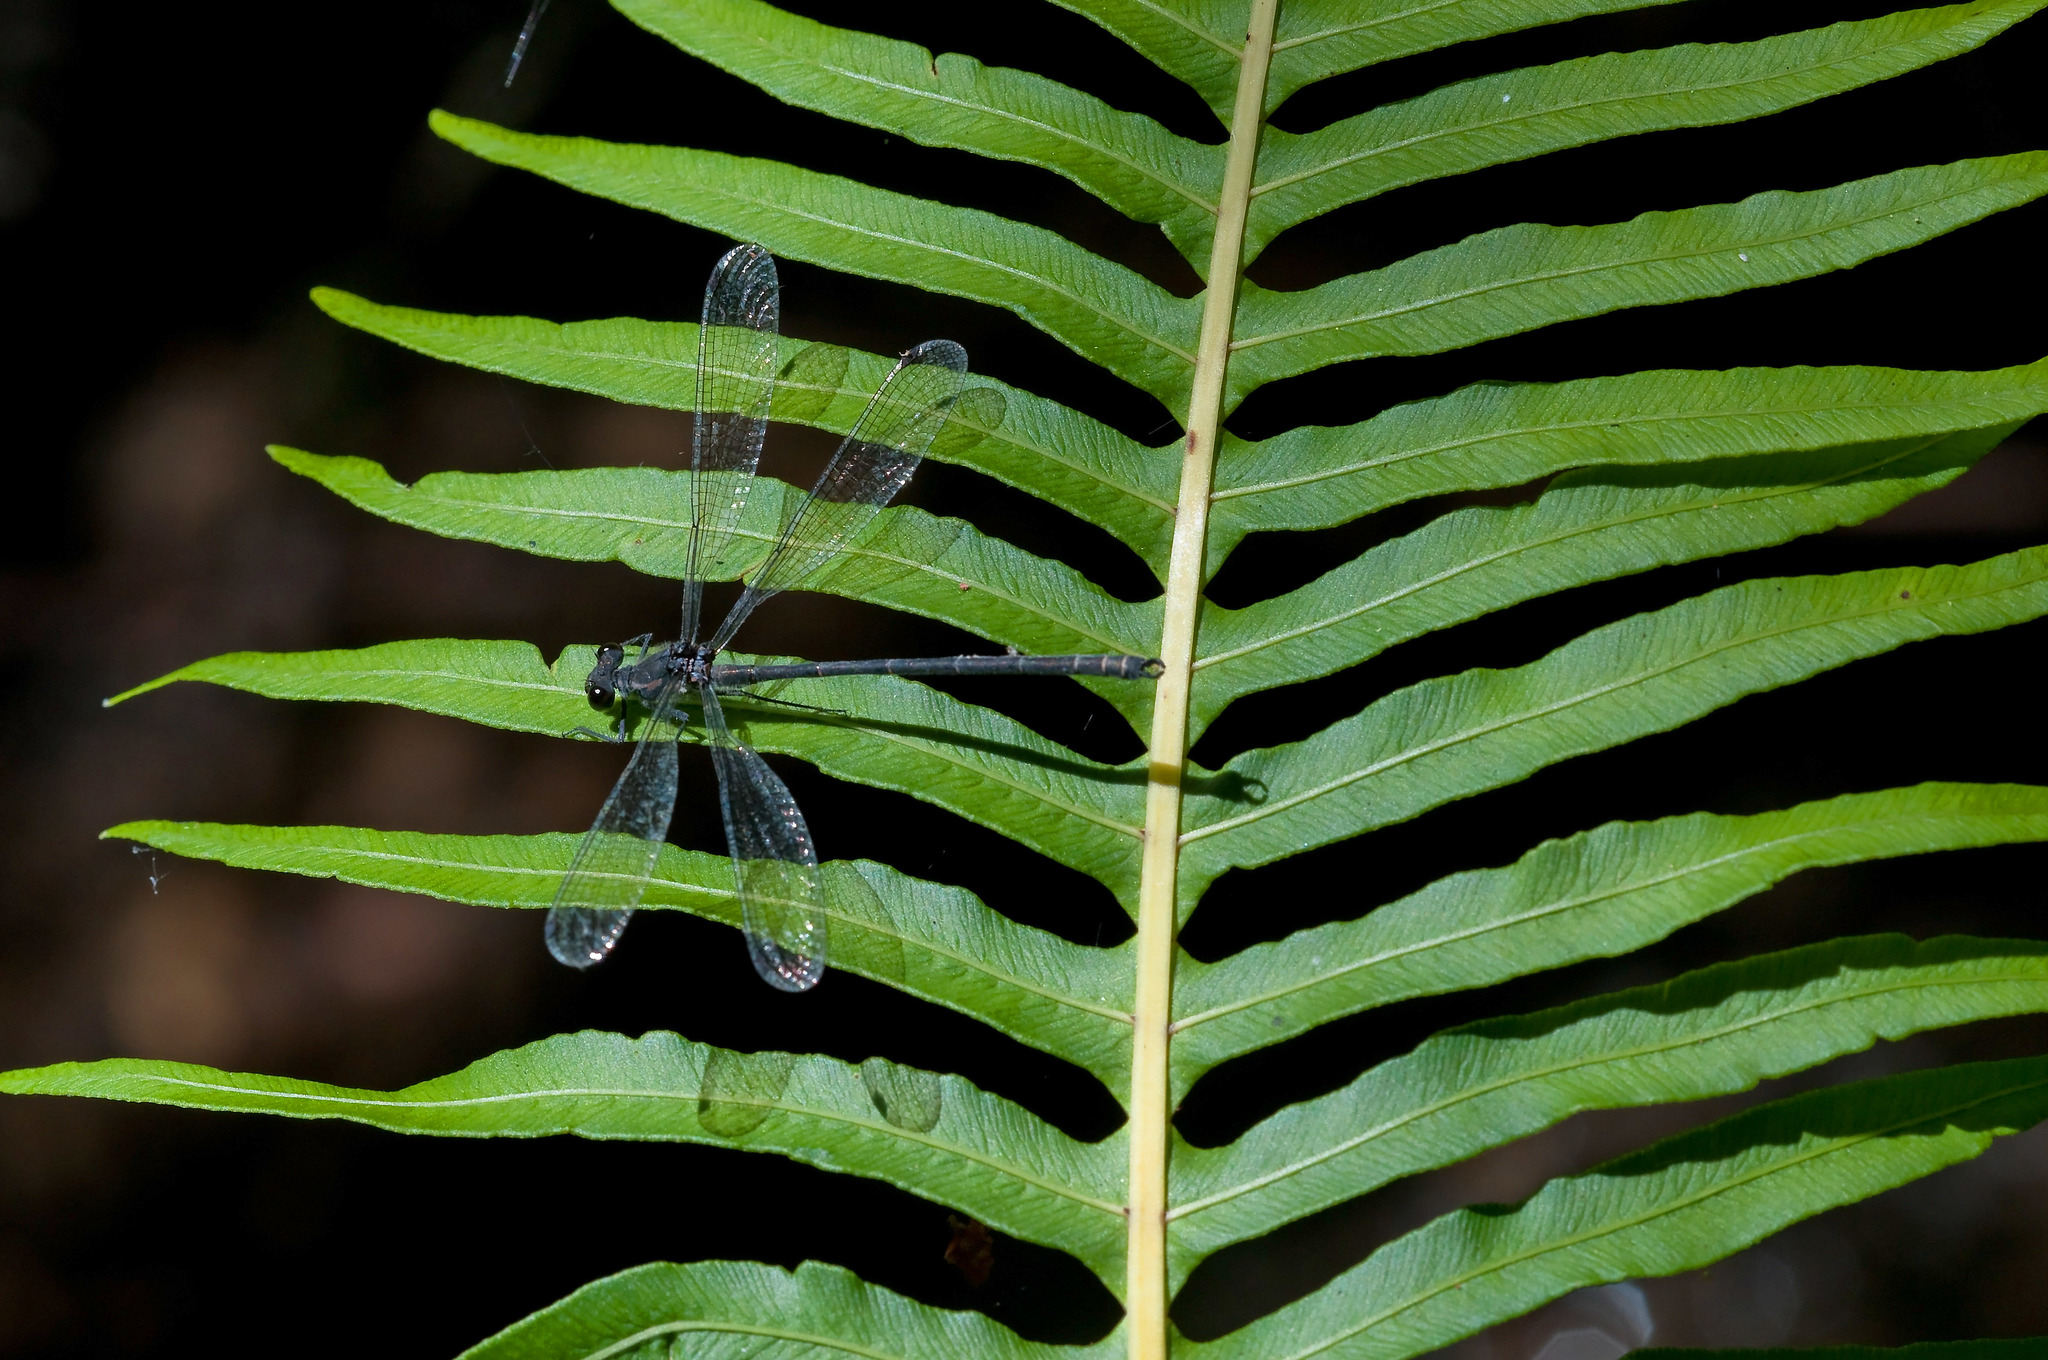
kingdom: Animalia
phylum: Arthropoda
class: Insecta
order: Odonata
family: Argiolestidae
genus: Austroargiolestes
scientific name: Austroargiolestes icteromelas
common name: Common flatwing
